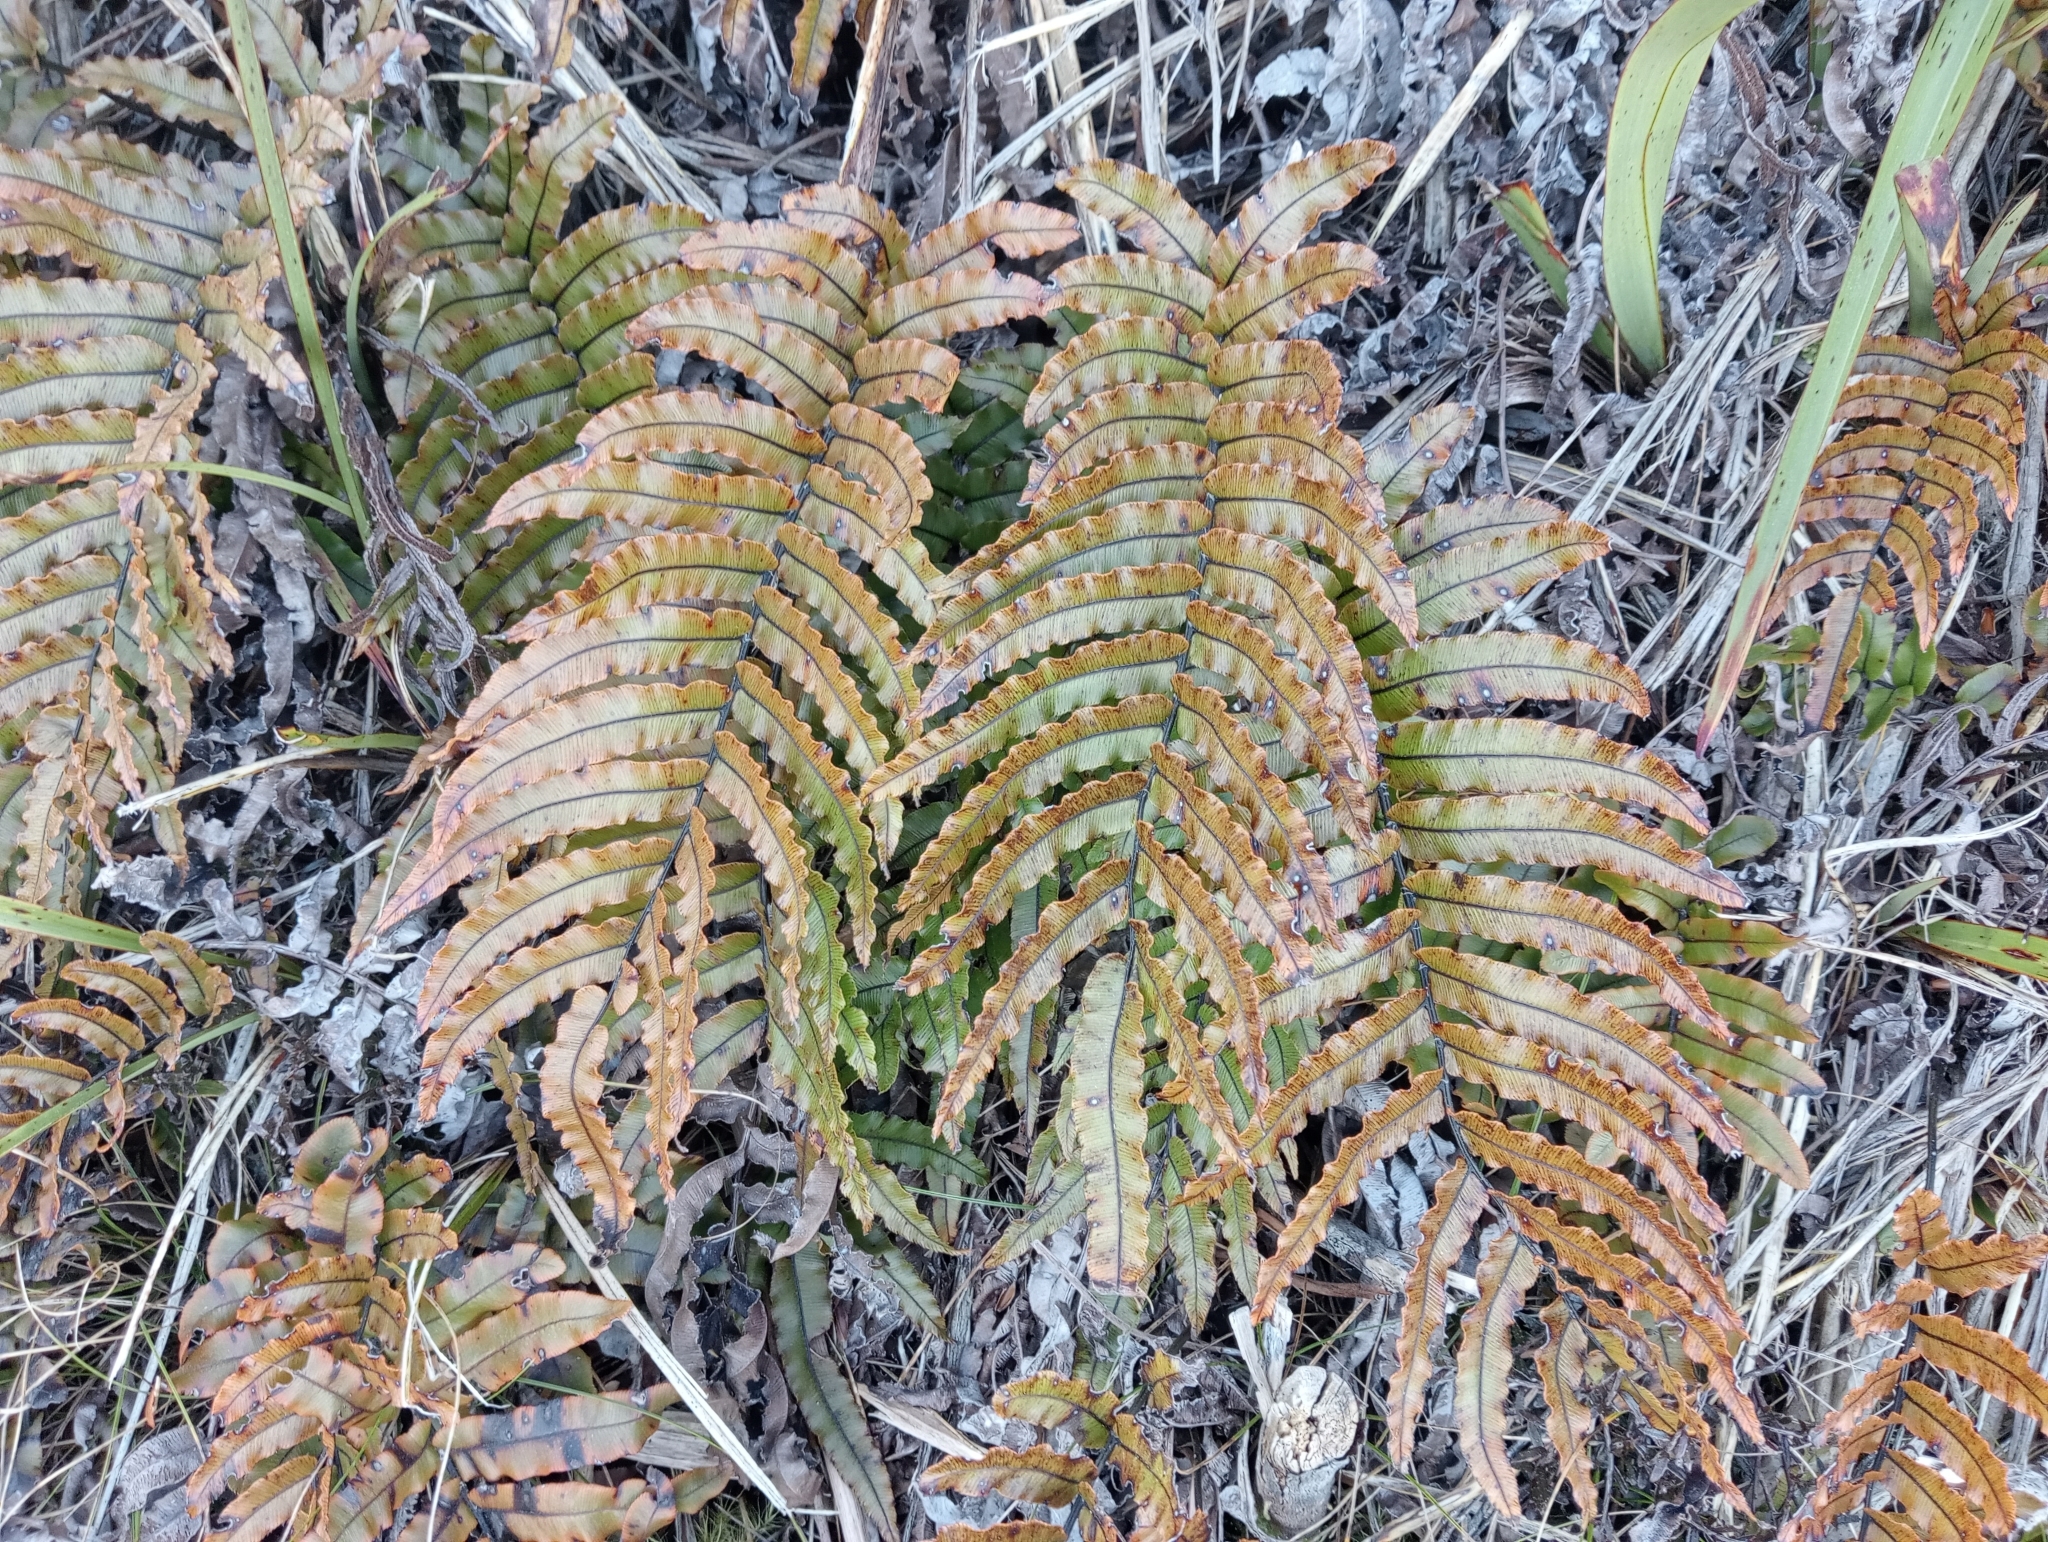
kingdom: Plantae
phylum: Tracheophyta
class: Polypodiopsida
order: Polypodiales
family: Blechnaceae
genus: Parablechnum
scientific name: Parablechnum montanum
